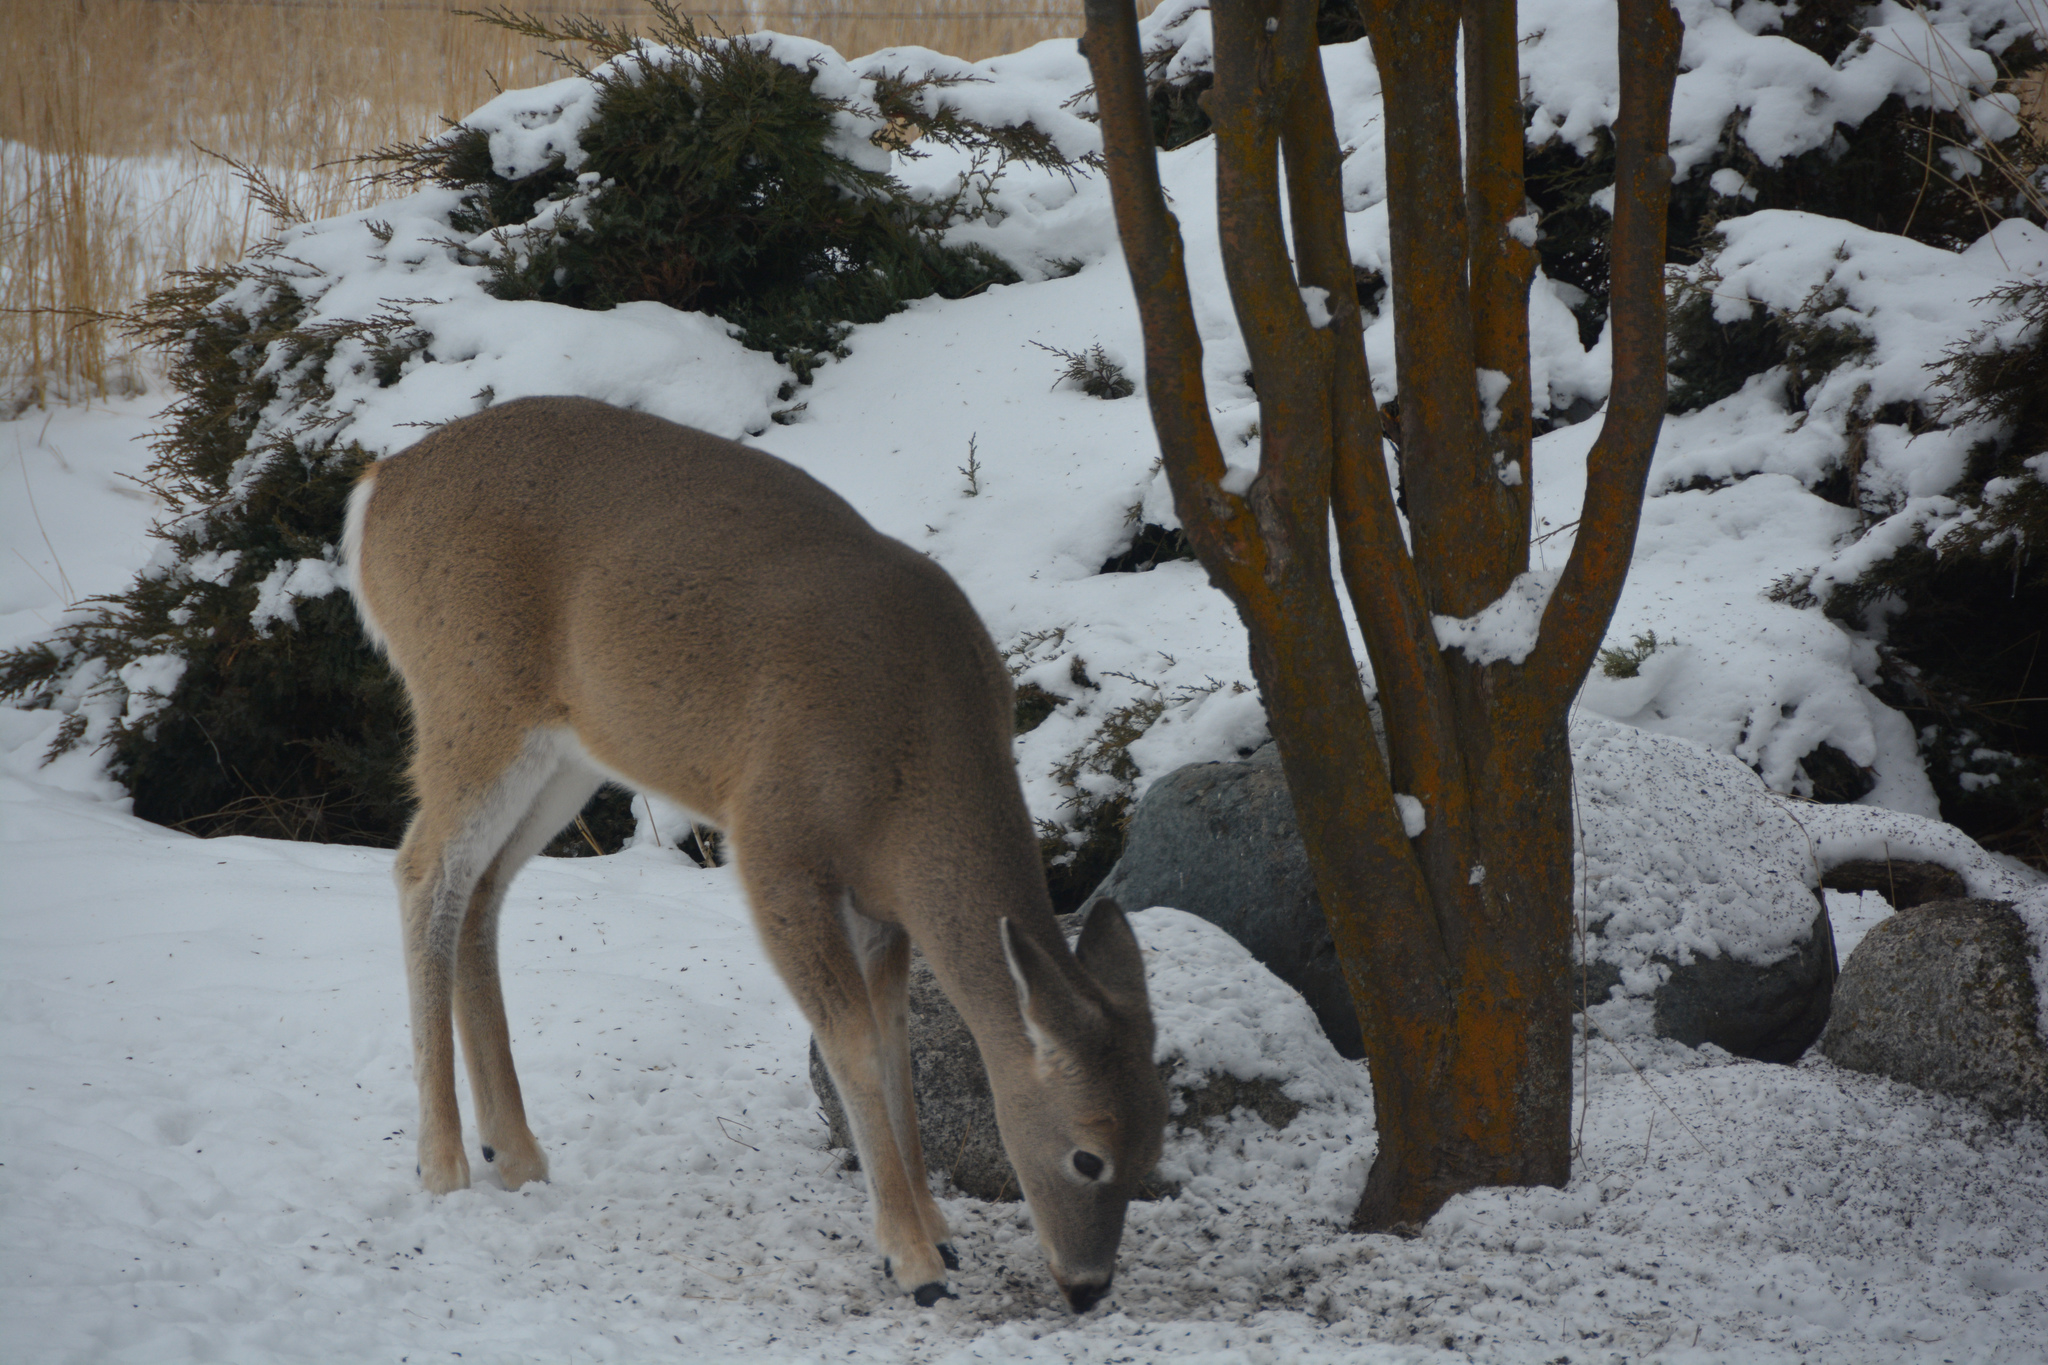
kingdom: Animalia
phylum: Chordata
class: Mammalia
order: Artiodactyla
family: Cervidae
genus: Odocoileus
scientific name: Odocoileus virginianus
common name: White-tailed deer
